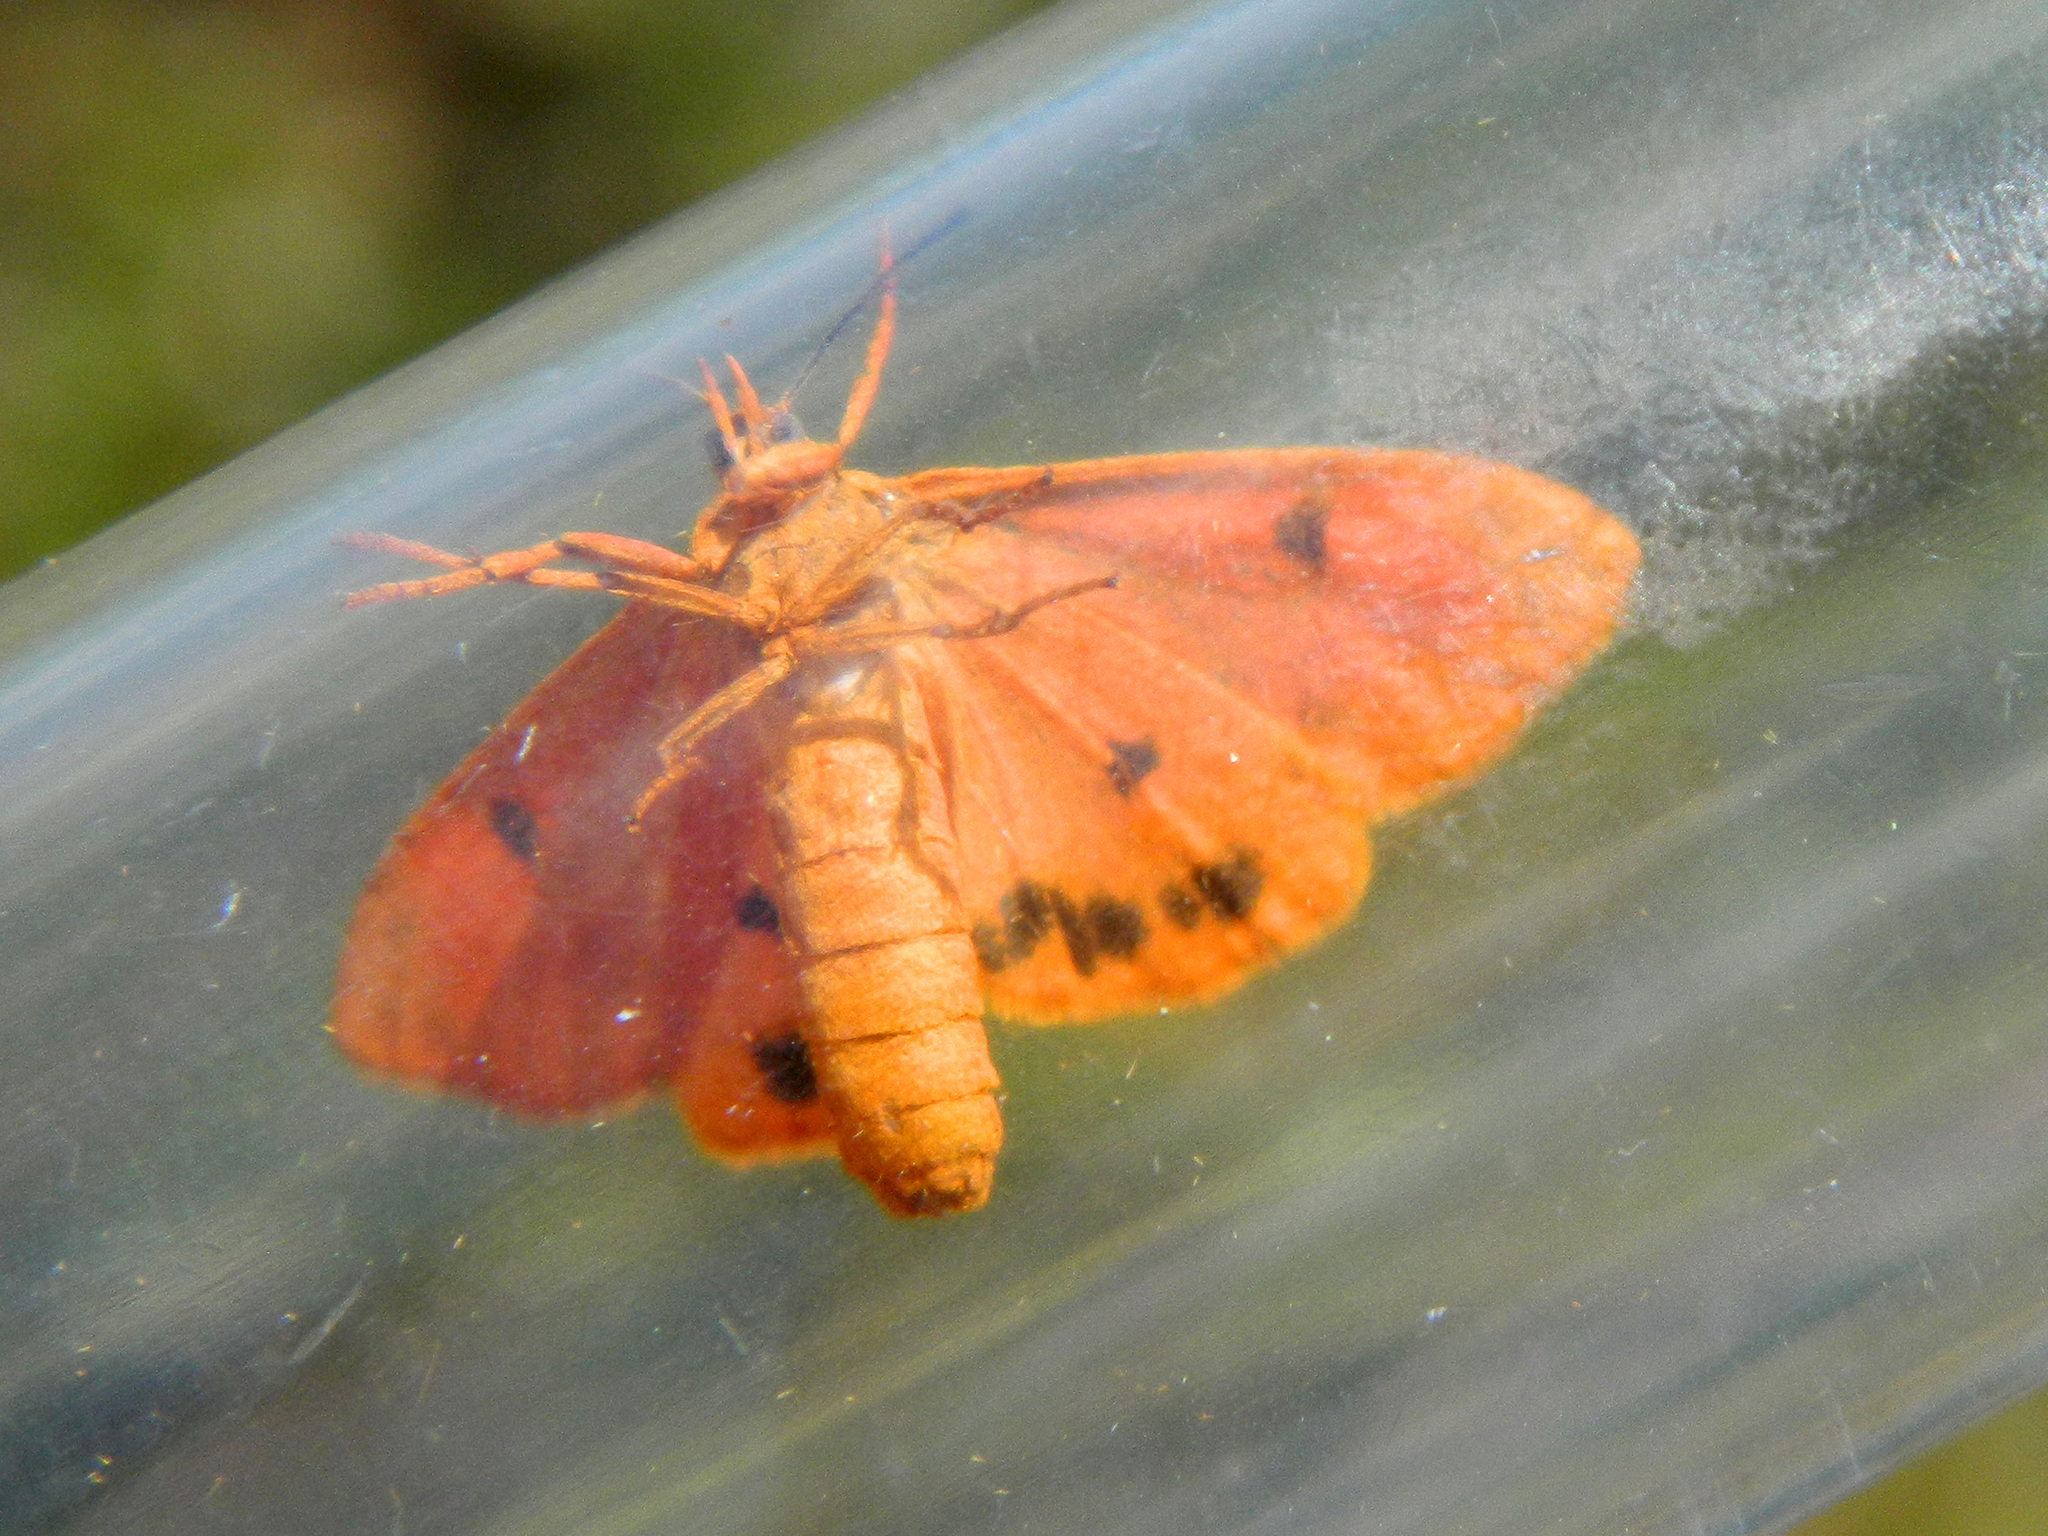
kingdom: Animalia
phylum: Arthropoda
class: Insecta
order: Lepidoptera
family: Erebidae
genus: Virbia
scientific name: Virbia ferruginosa
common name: Rusty virbia moth
